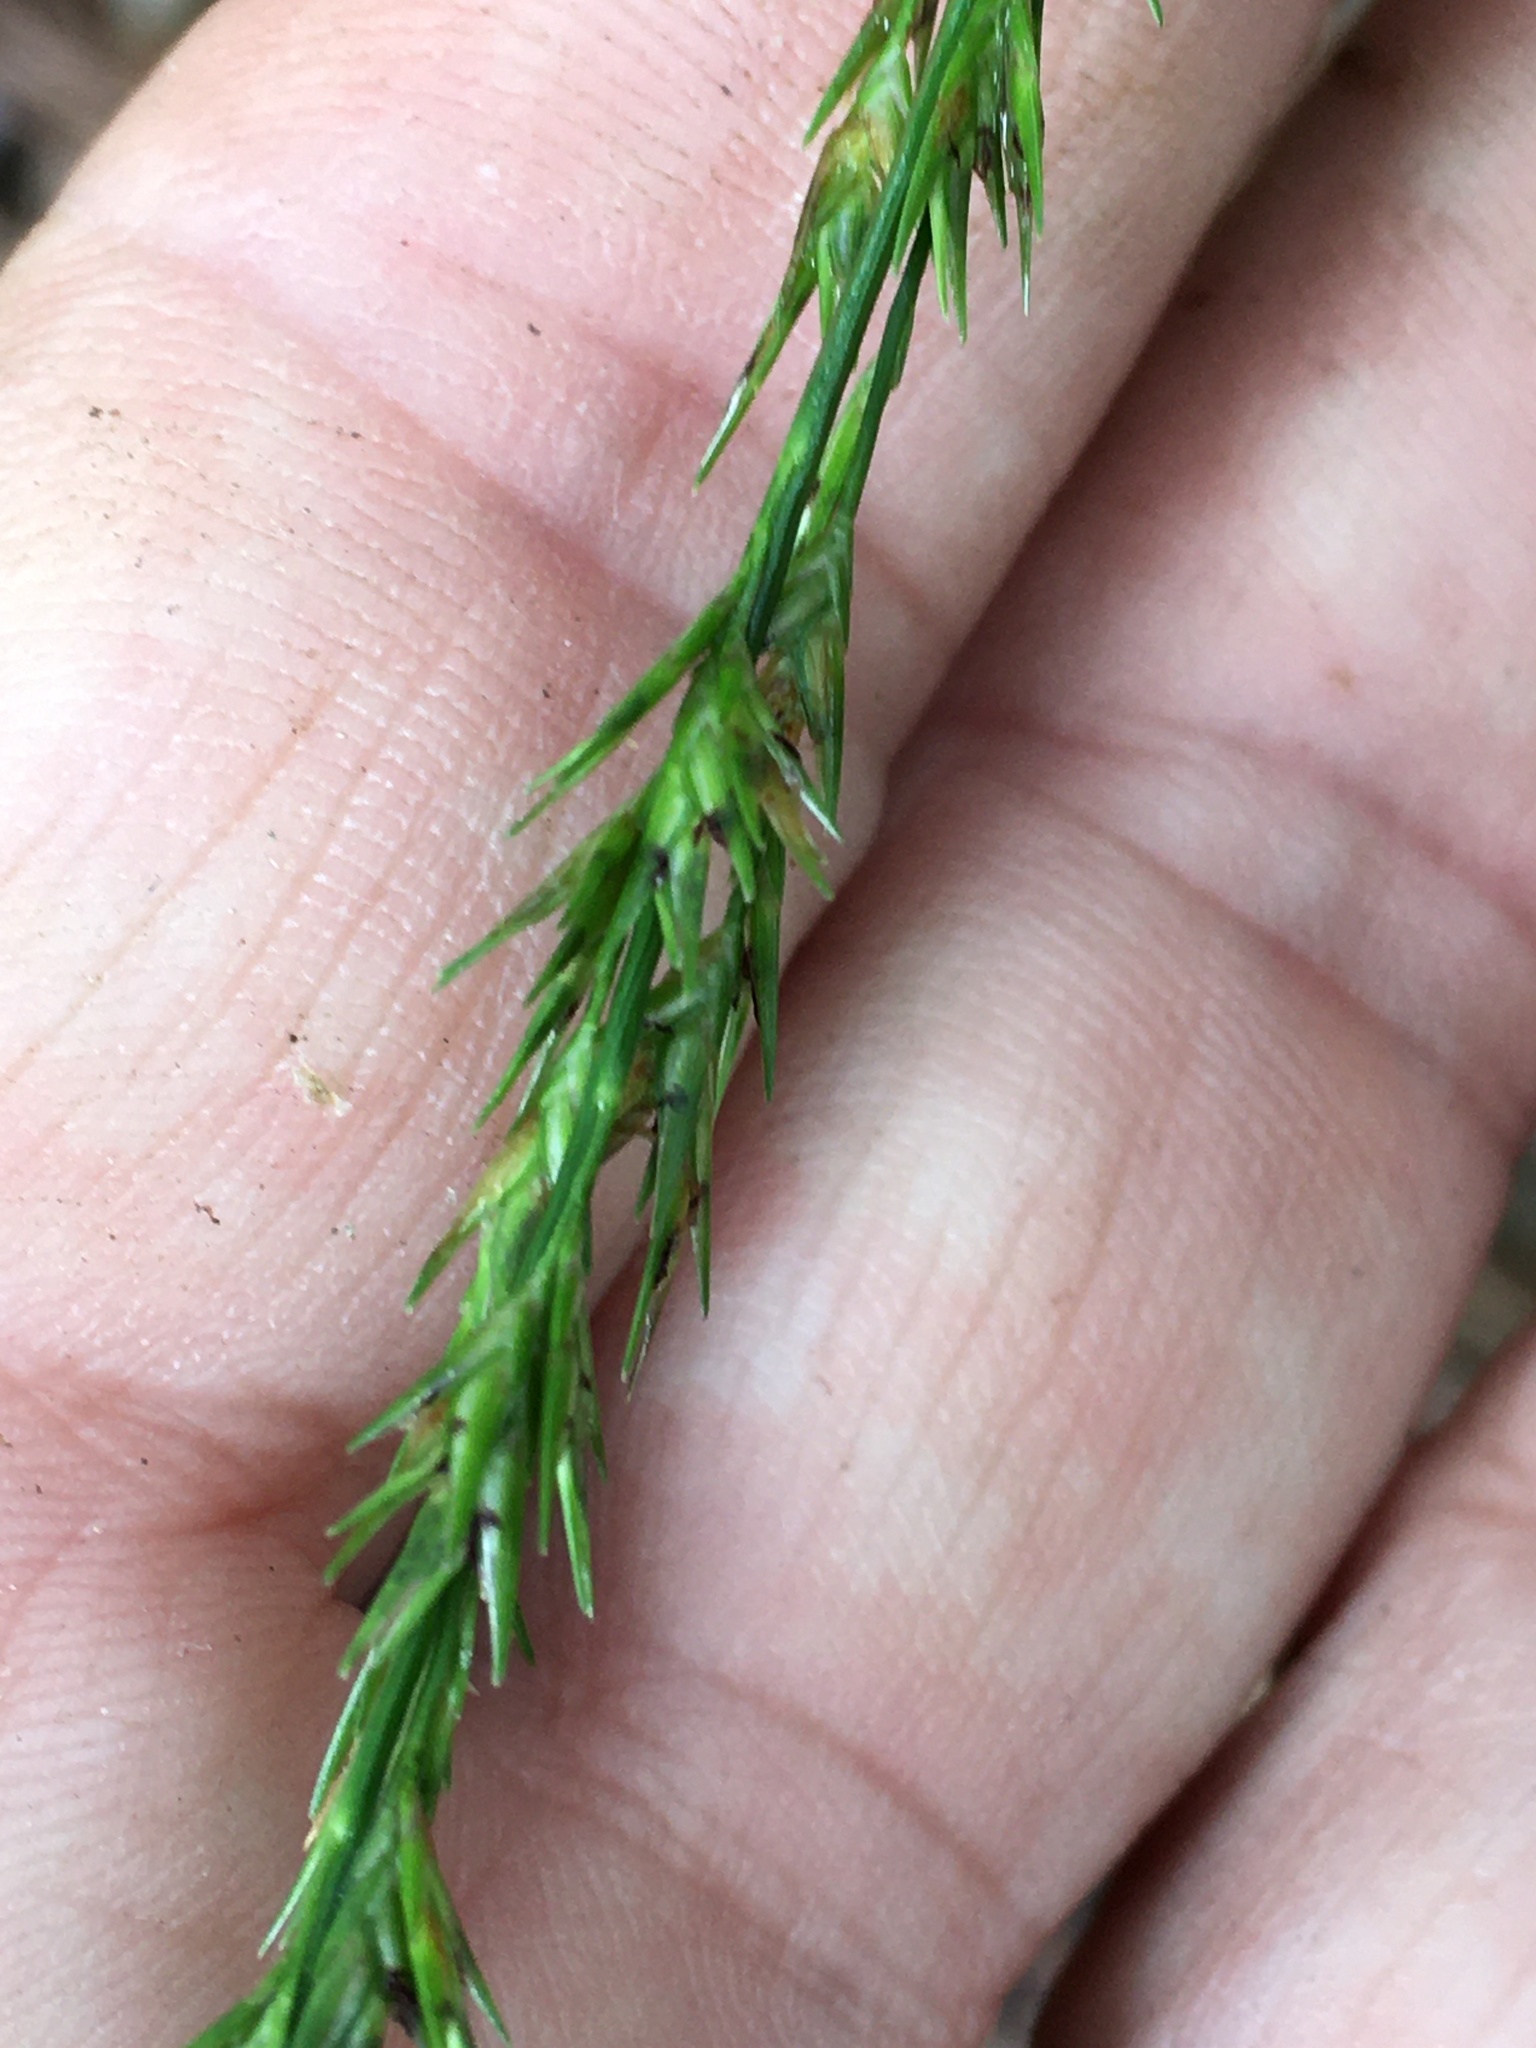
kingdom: Plantae
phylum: Tracheophyta
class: Liliopsida
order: Poales
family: Poaceae
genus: Chasmanthium
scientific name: Chasmanthium laxum
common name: Slender chasmanthium
